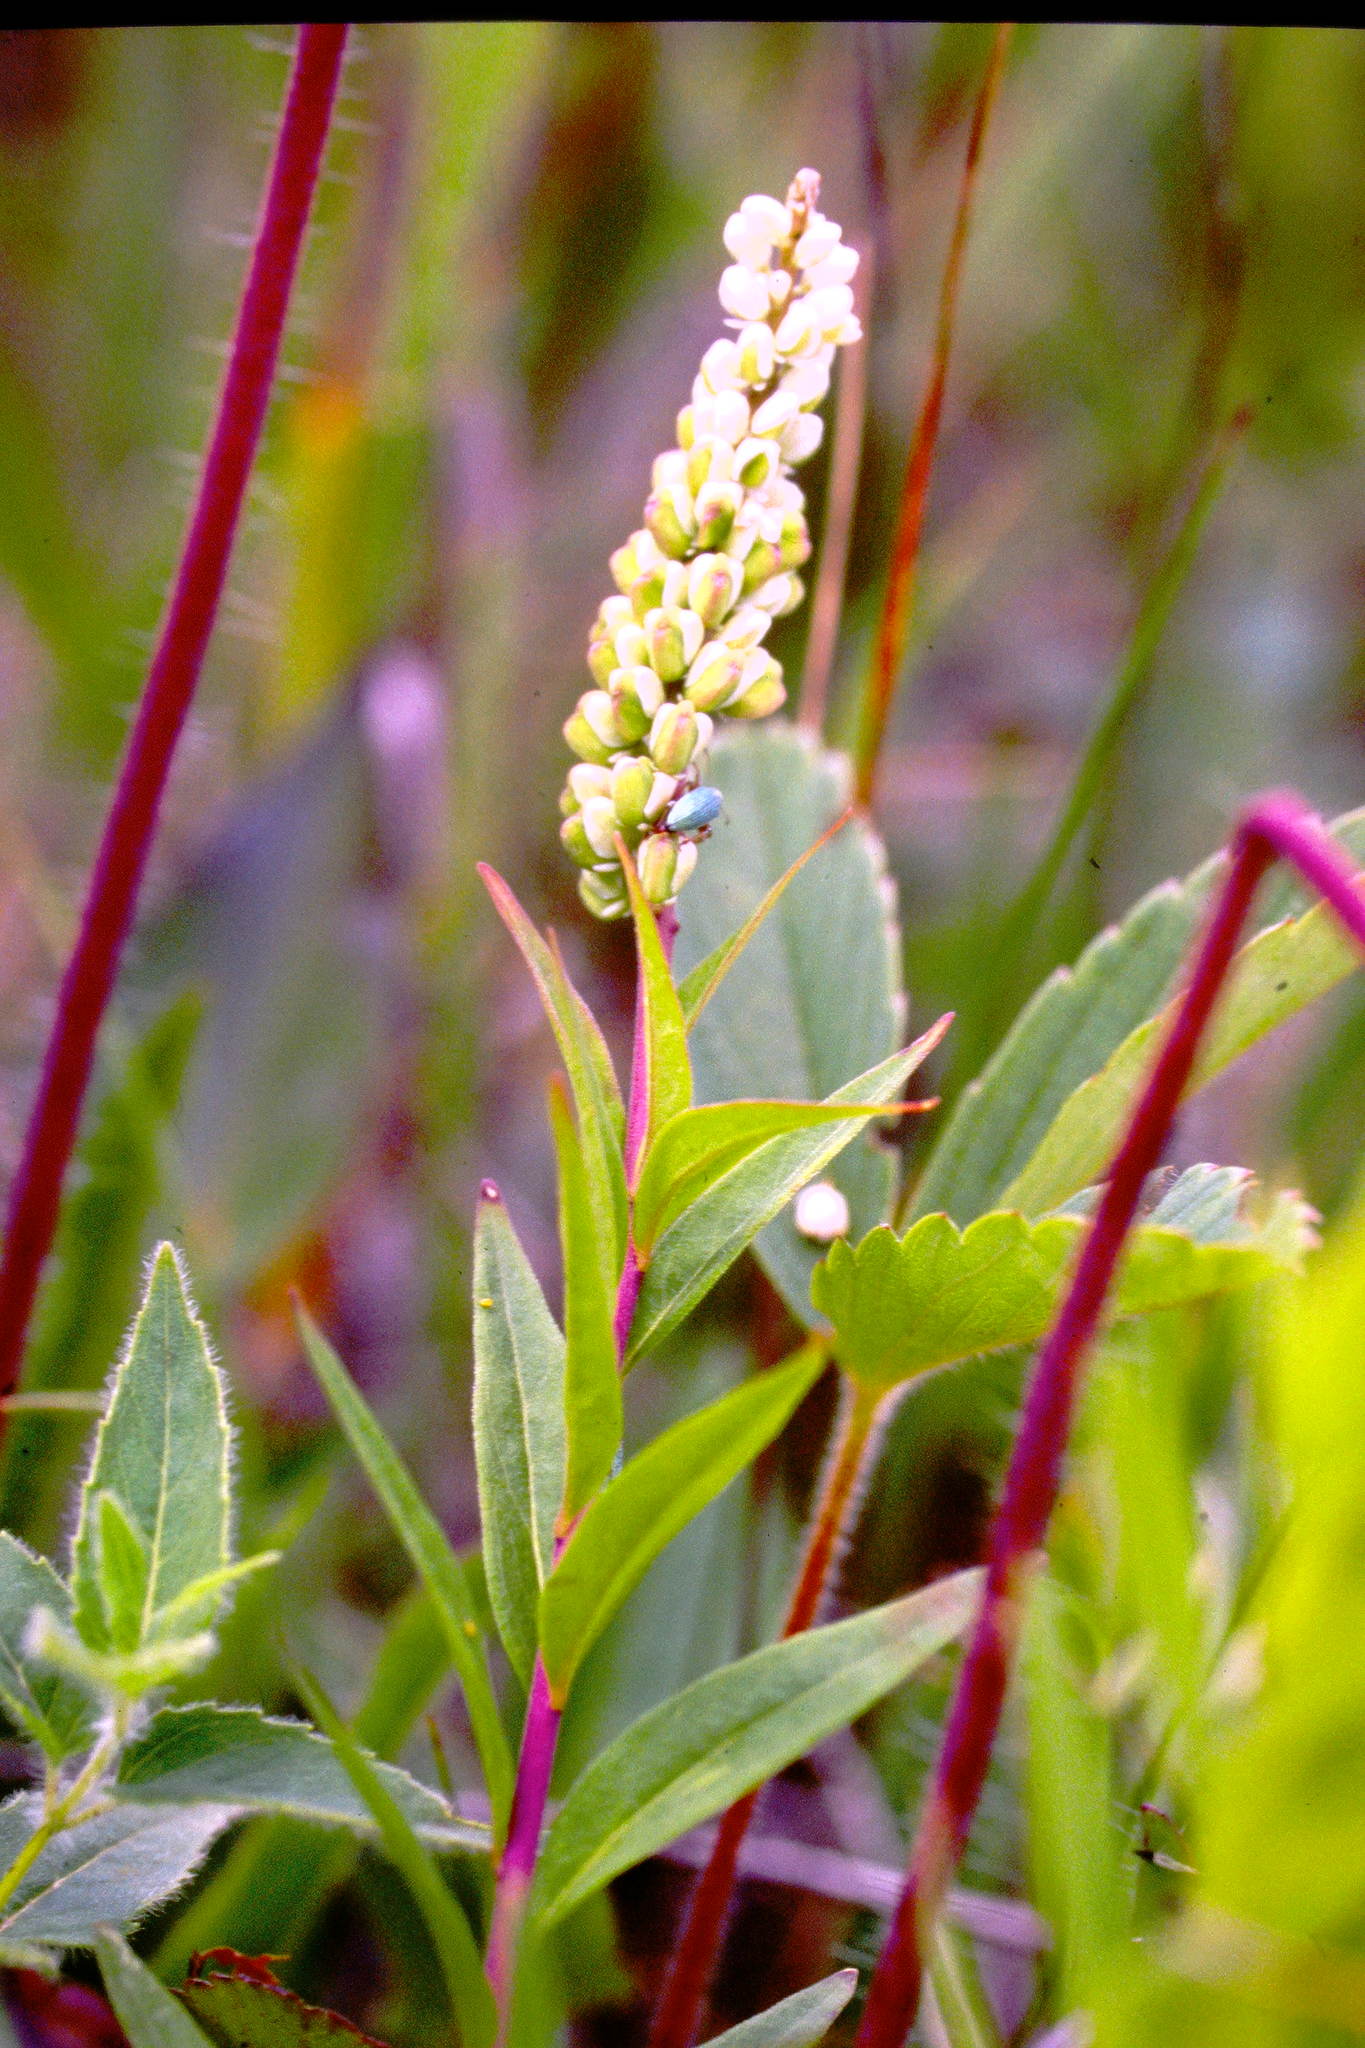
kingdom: Plantae
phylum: Tracheophyta
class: Magnoliopsida
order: Fabales
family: Polygalaceae
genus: Polygala
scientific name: Polygala senega
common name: Seneca snakeroot
